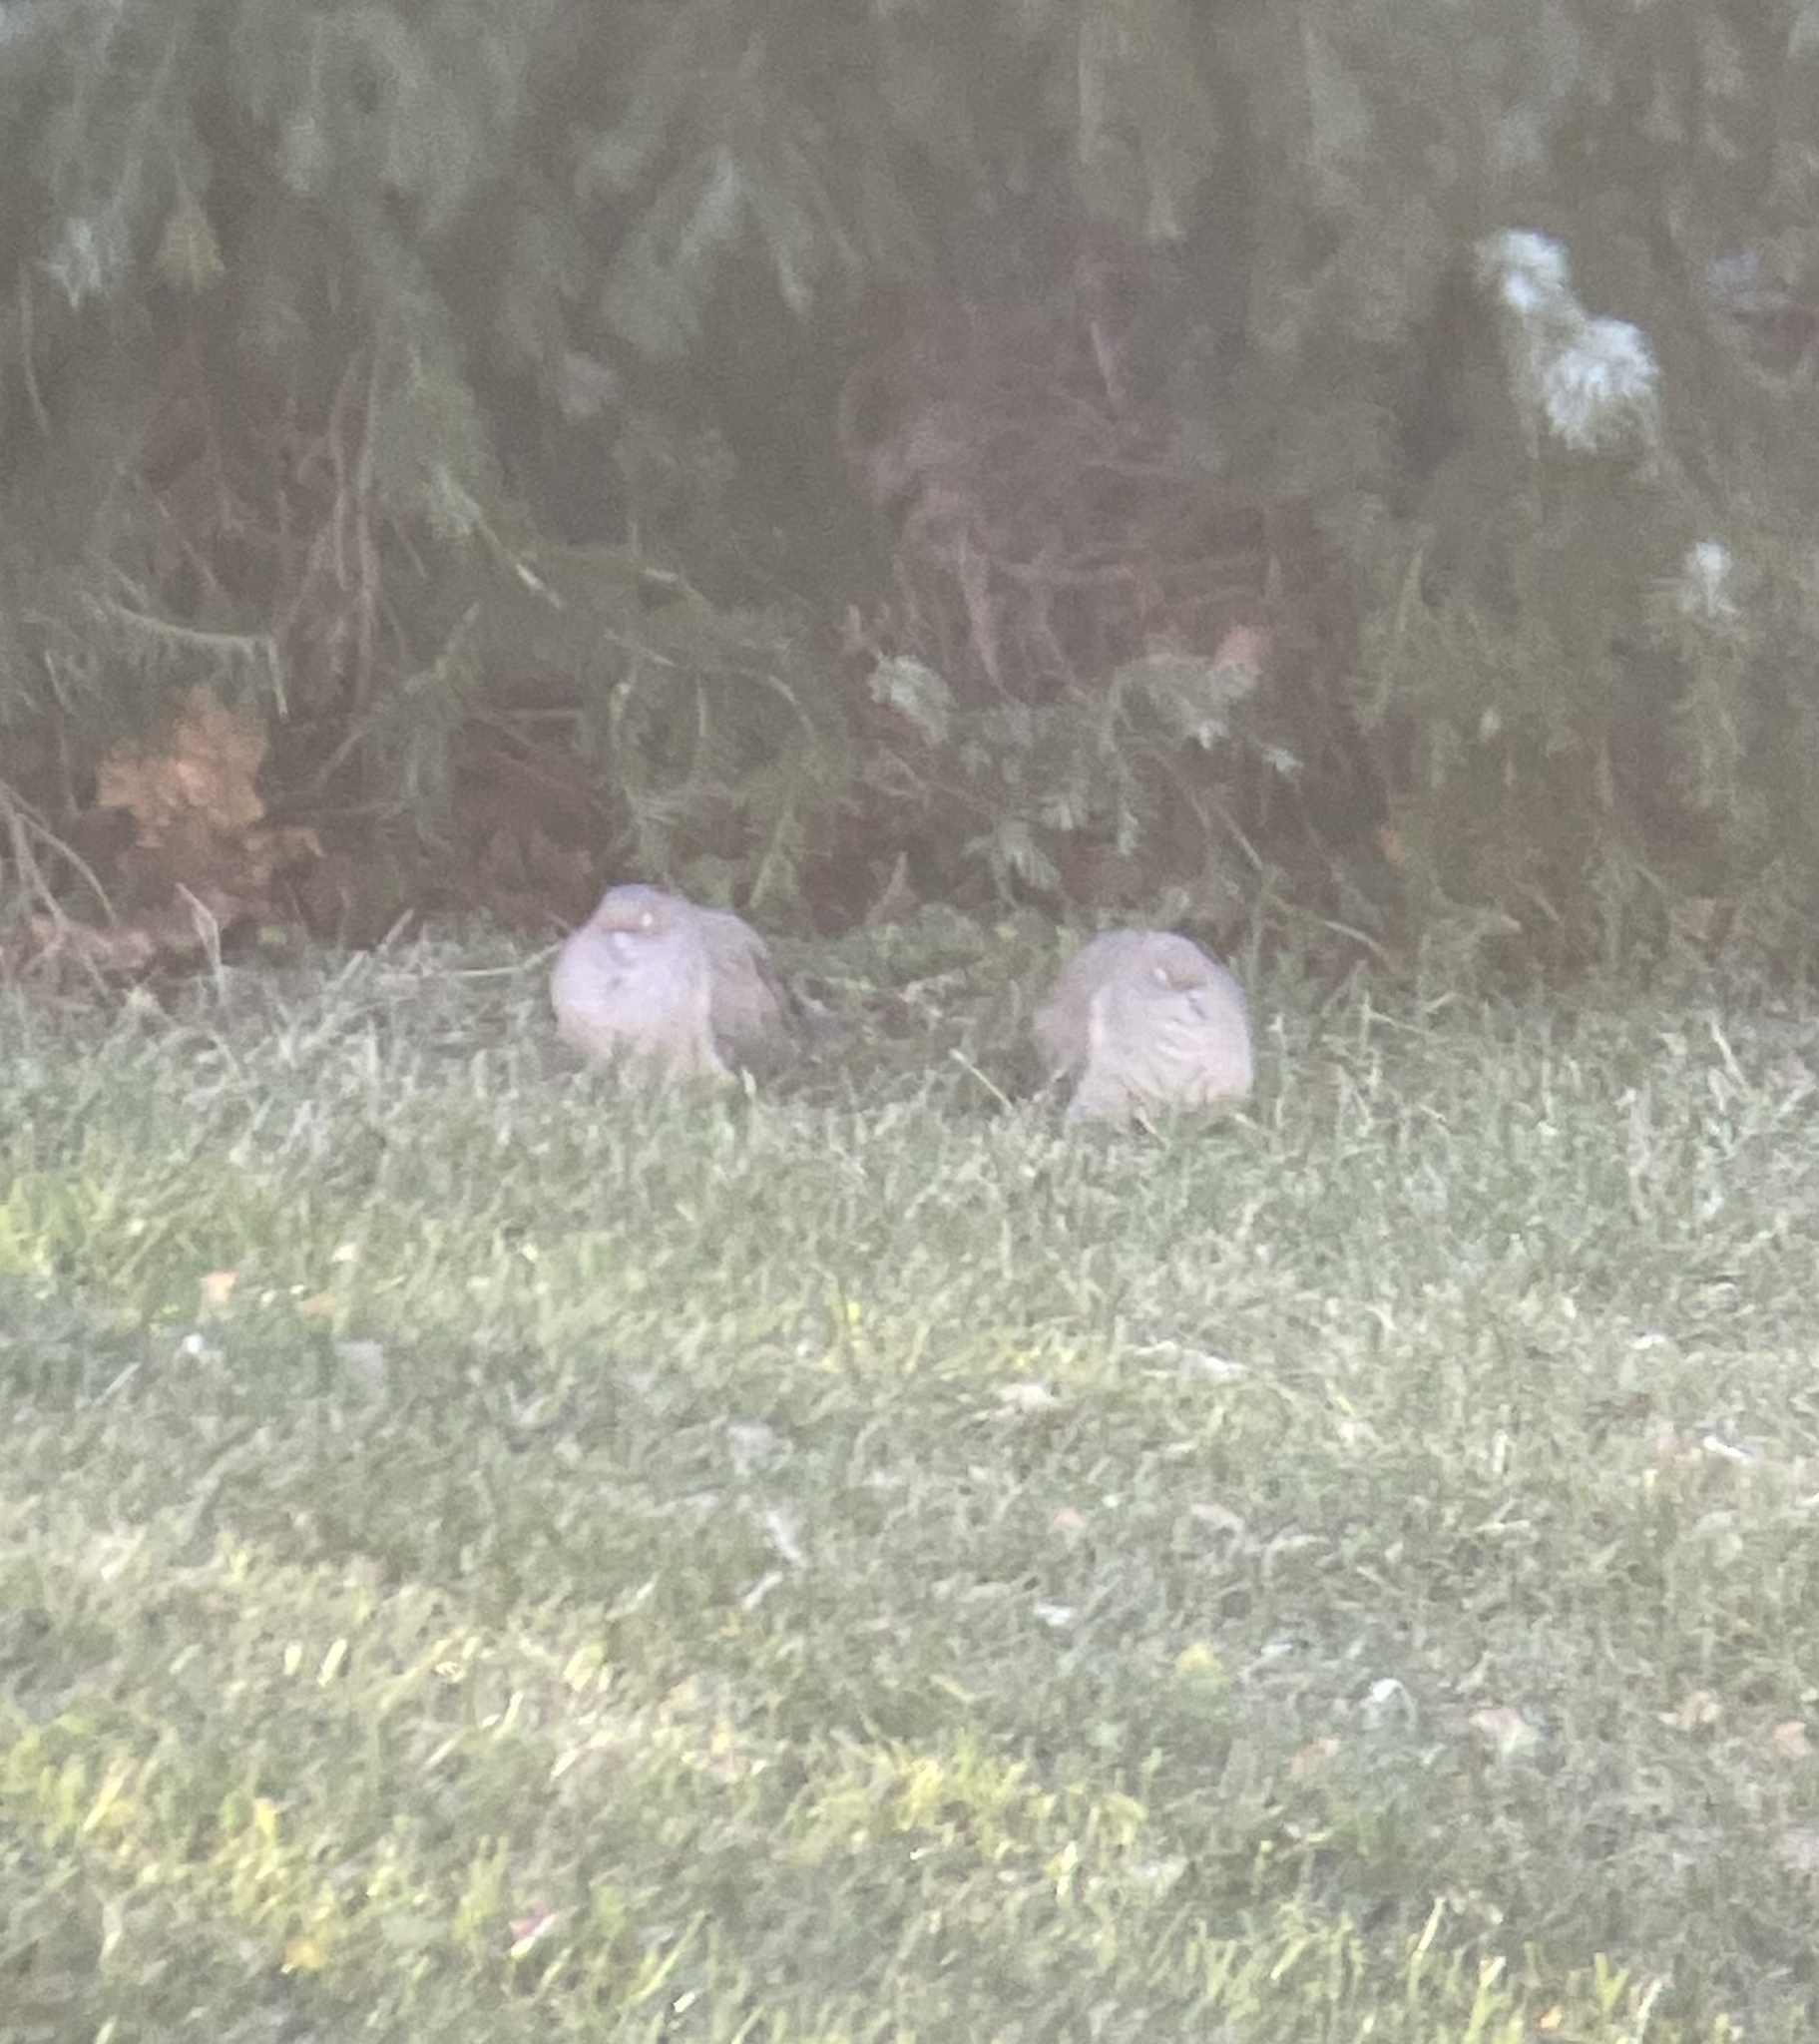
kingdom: Animalia
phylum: Chordata
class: Aves
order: Columbiformes
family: Columbidae
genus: Zenaida
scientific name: Zenaida macroura
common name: Mourning dove
